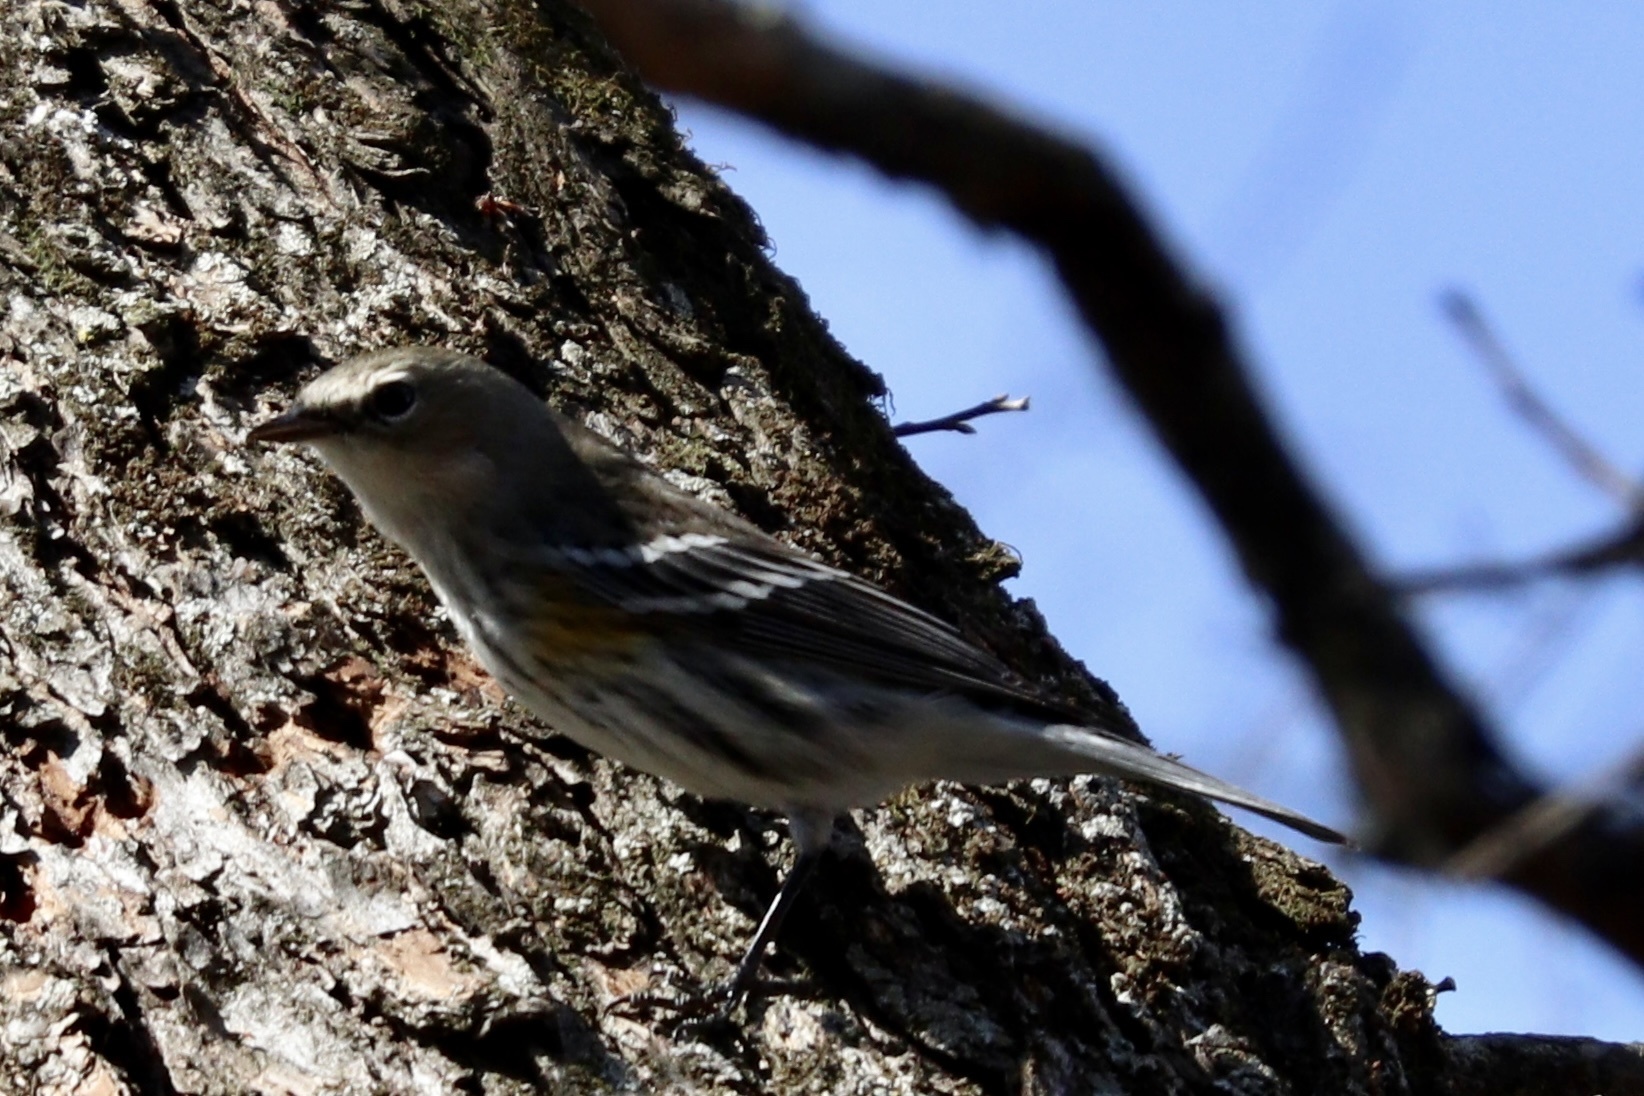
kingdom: Animalia
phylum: Chordata
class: Aves
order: Passeriformes
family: Parulidae
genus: Setophaga
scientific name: Setophaga coronata
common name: Myrtle warbler
